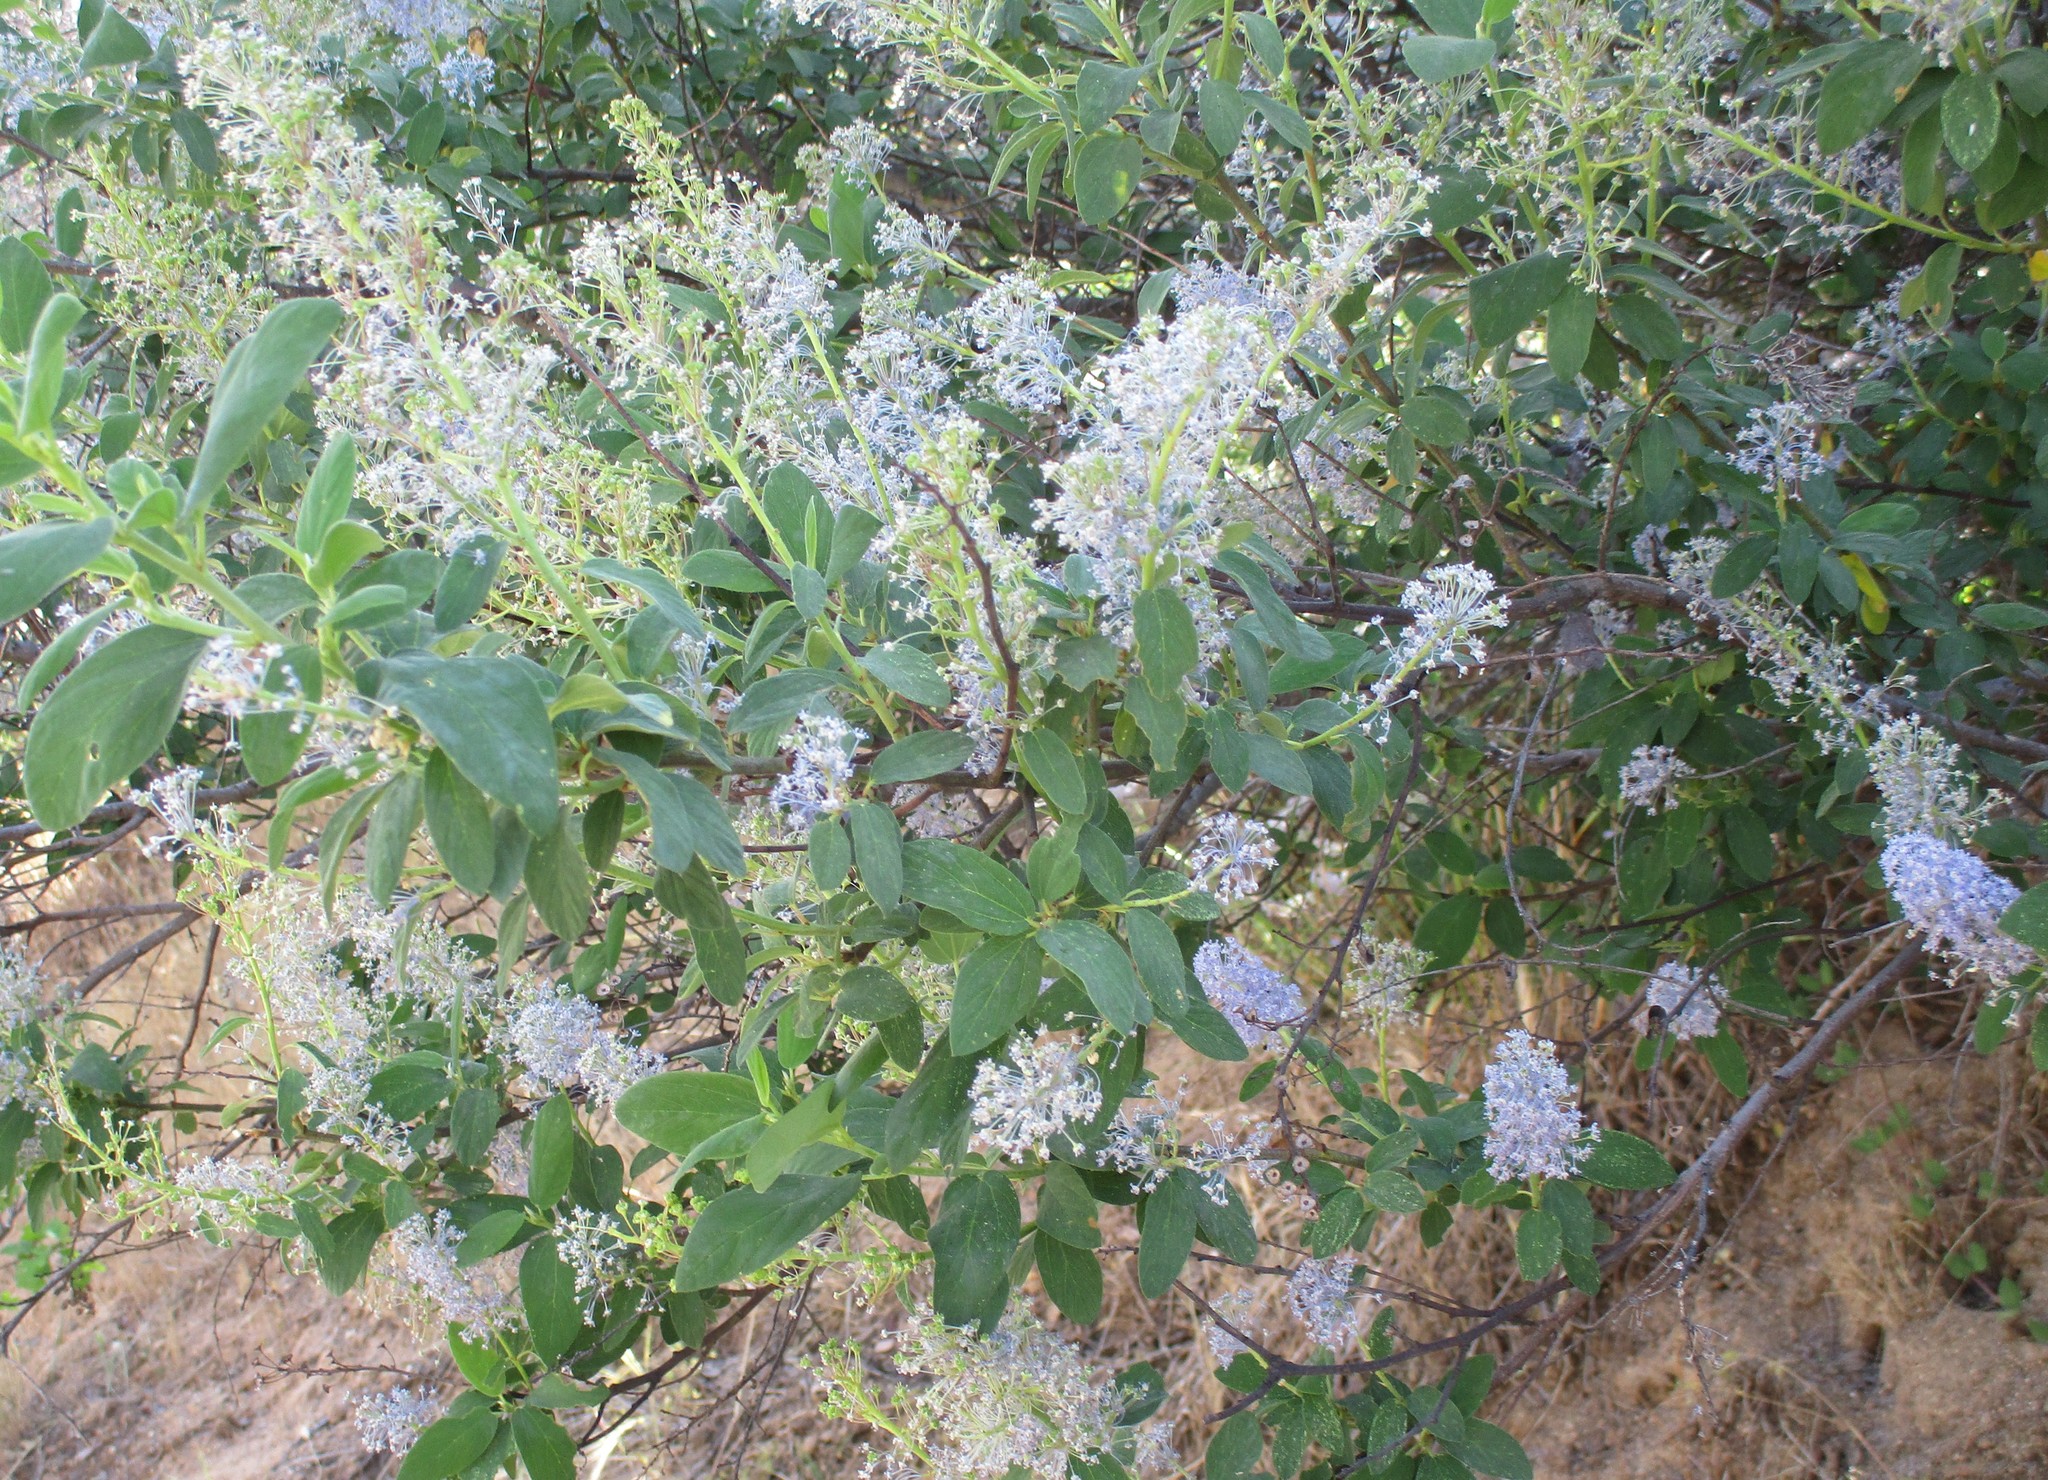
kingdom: Plantae
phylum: Tracheophyta
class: Magnoliopsida
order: Rosales
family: Rhamnaceae
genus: Ceanothus
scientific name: Ceanothus integerrimus
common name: Deerbrush ceanothus
